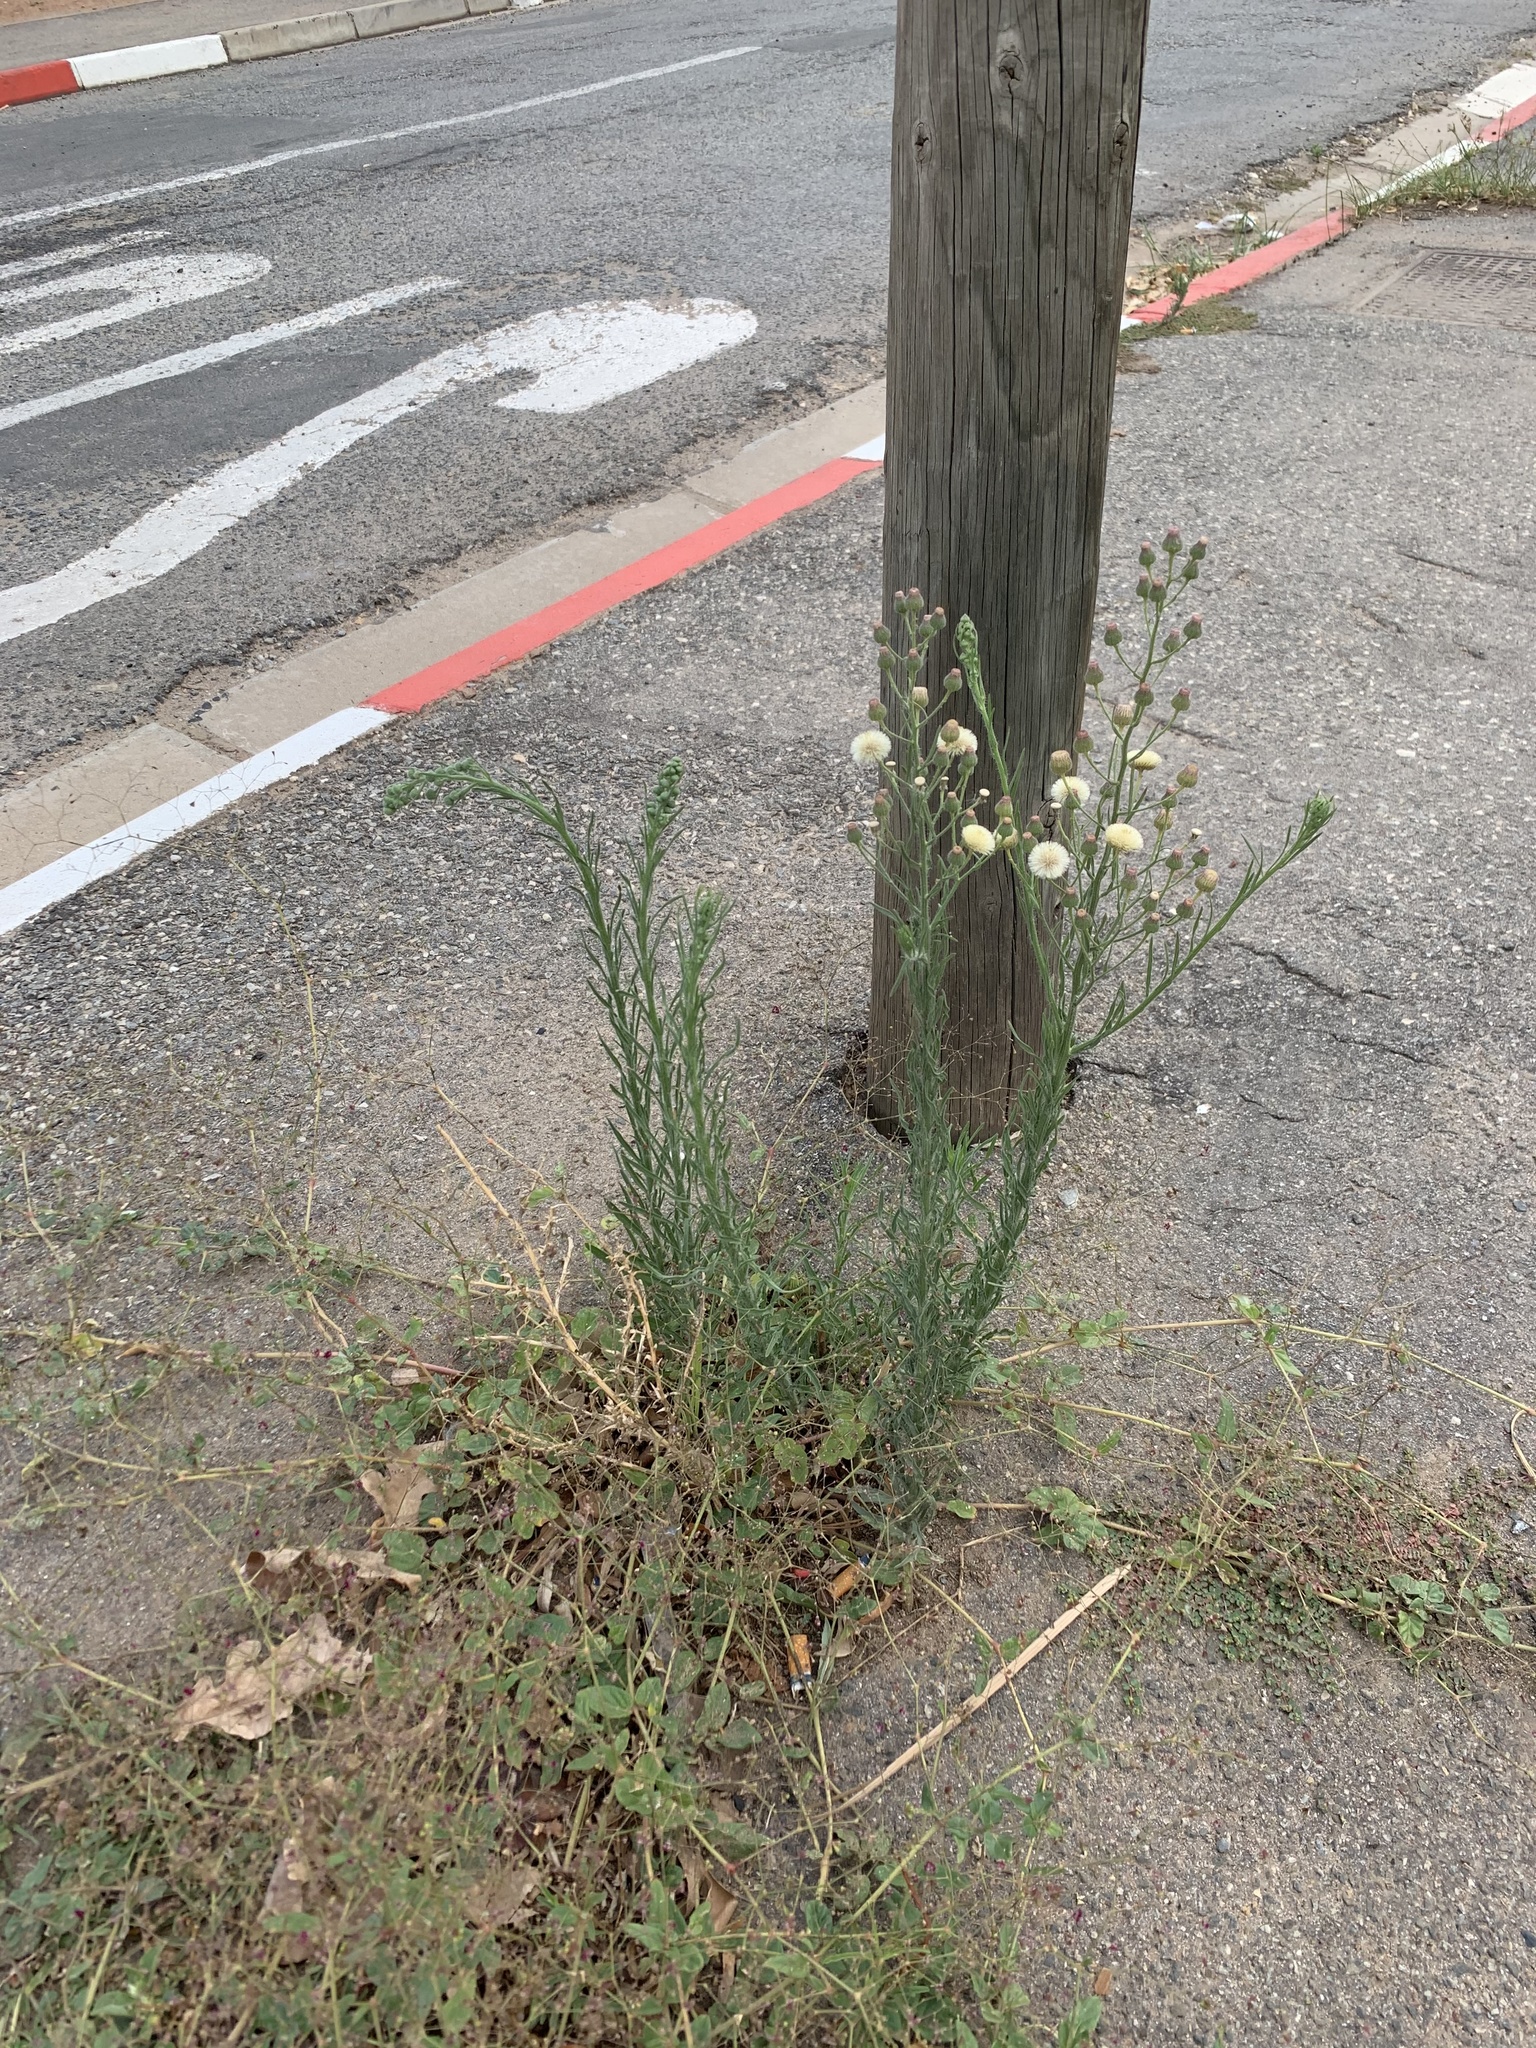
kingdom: Plantae
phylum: Tracheophyta
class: Magnoliopsida
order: Asterales
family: Asteraceae
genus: Erigeron
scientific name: Erigeron bonariensis
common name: Argentine fleabane
